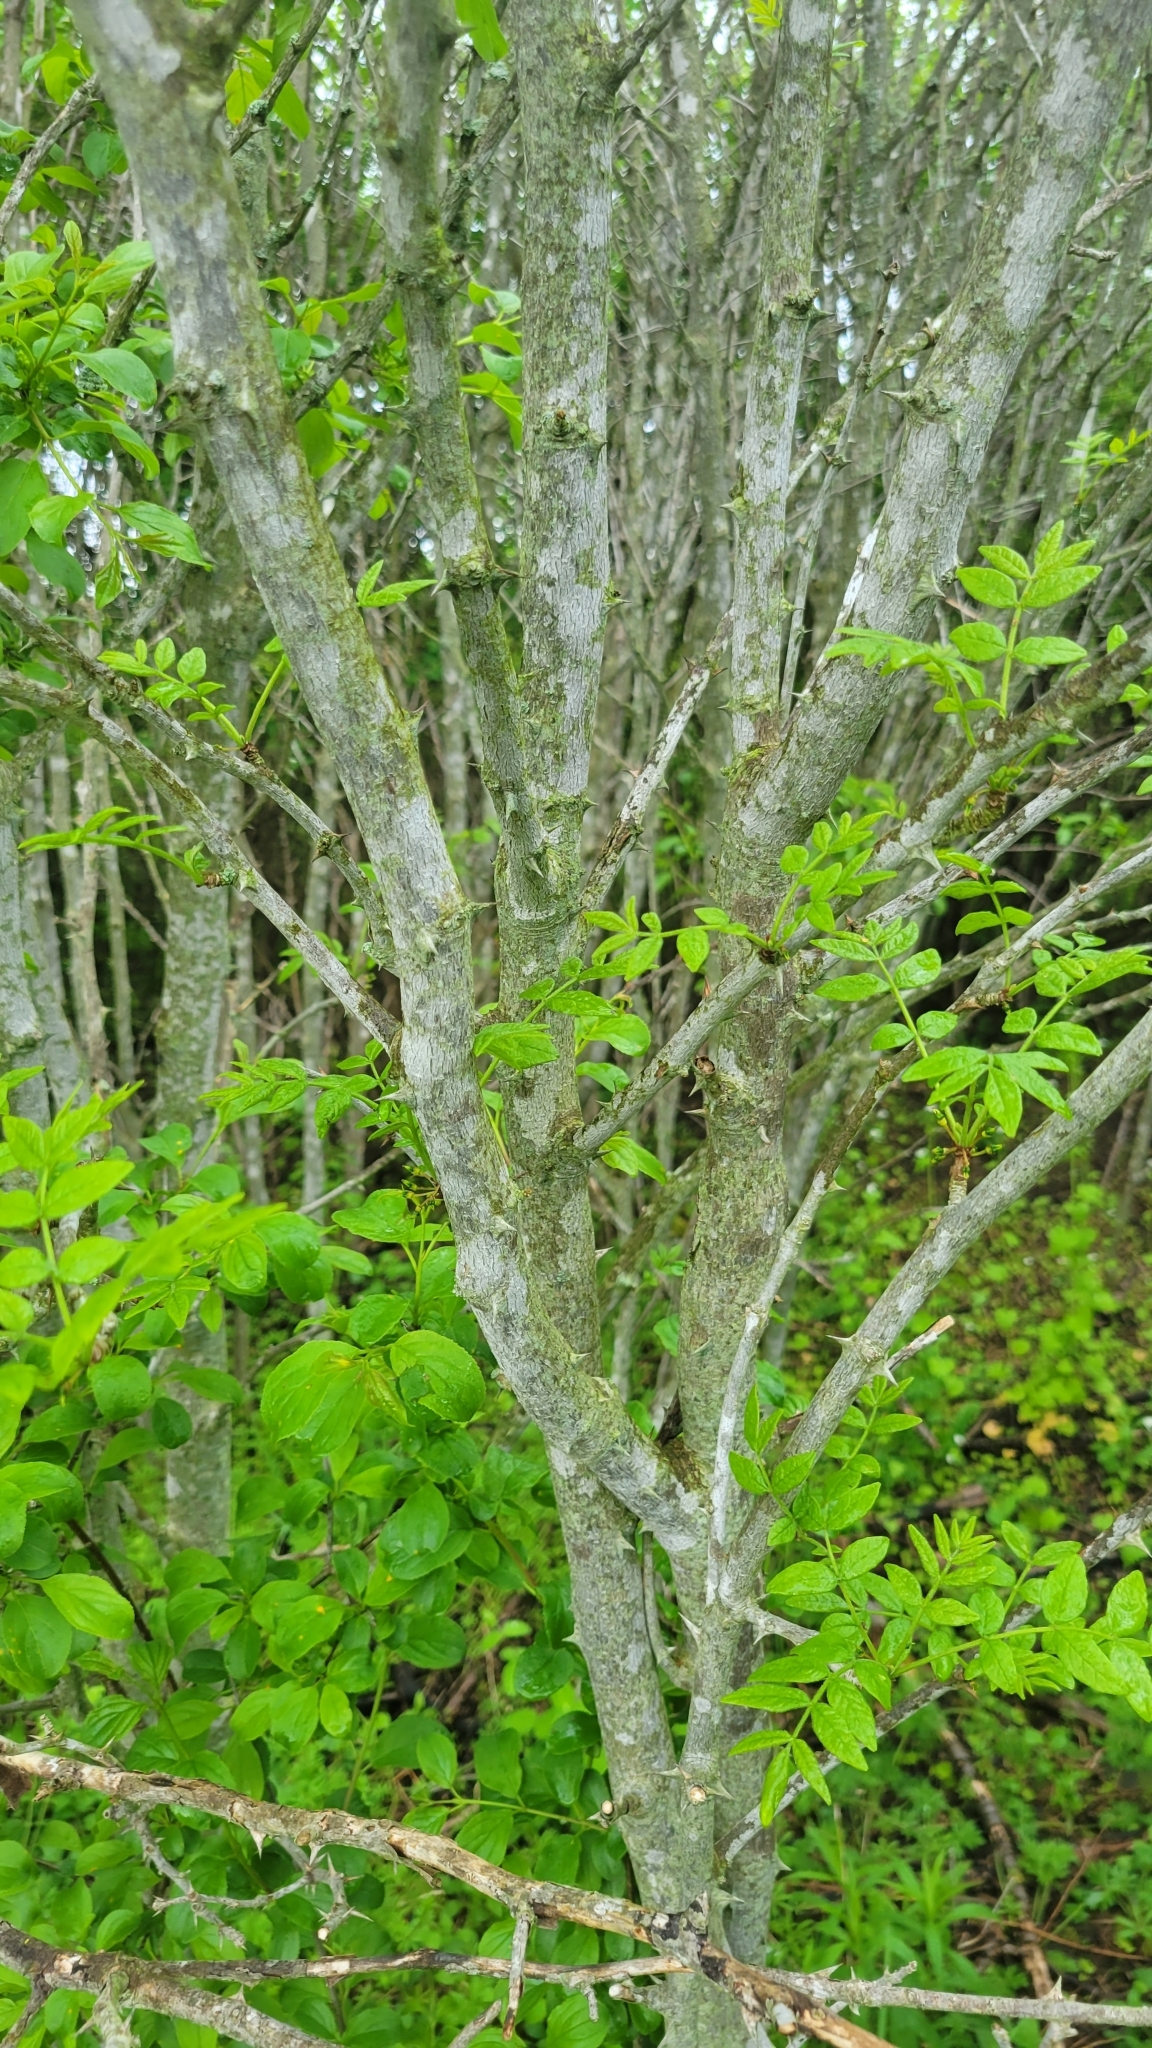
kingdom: Plantae
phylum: Tracheophyta
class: Magnoliopsida
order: Sapindales
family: Rutaceae
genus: Zanthoxylum
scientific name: Zanthoxylum americanum
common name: Northern prickly-ash
